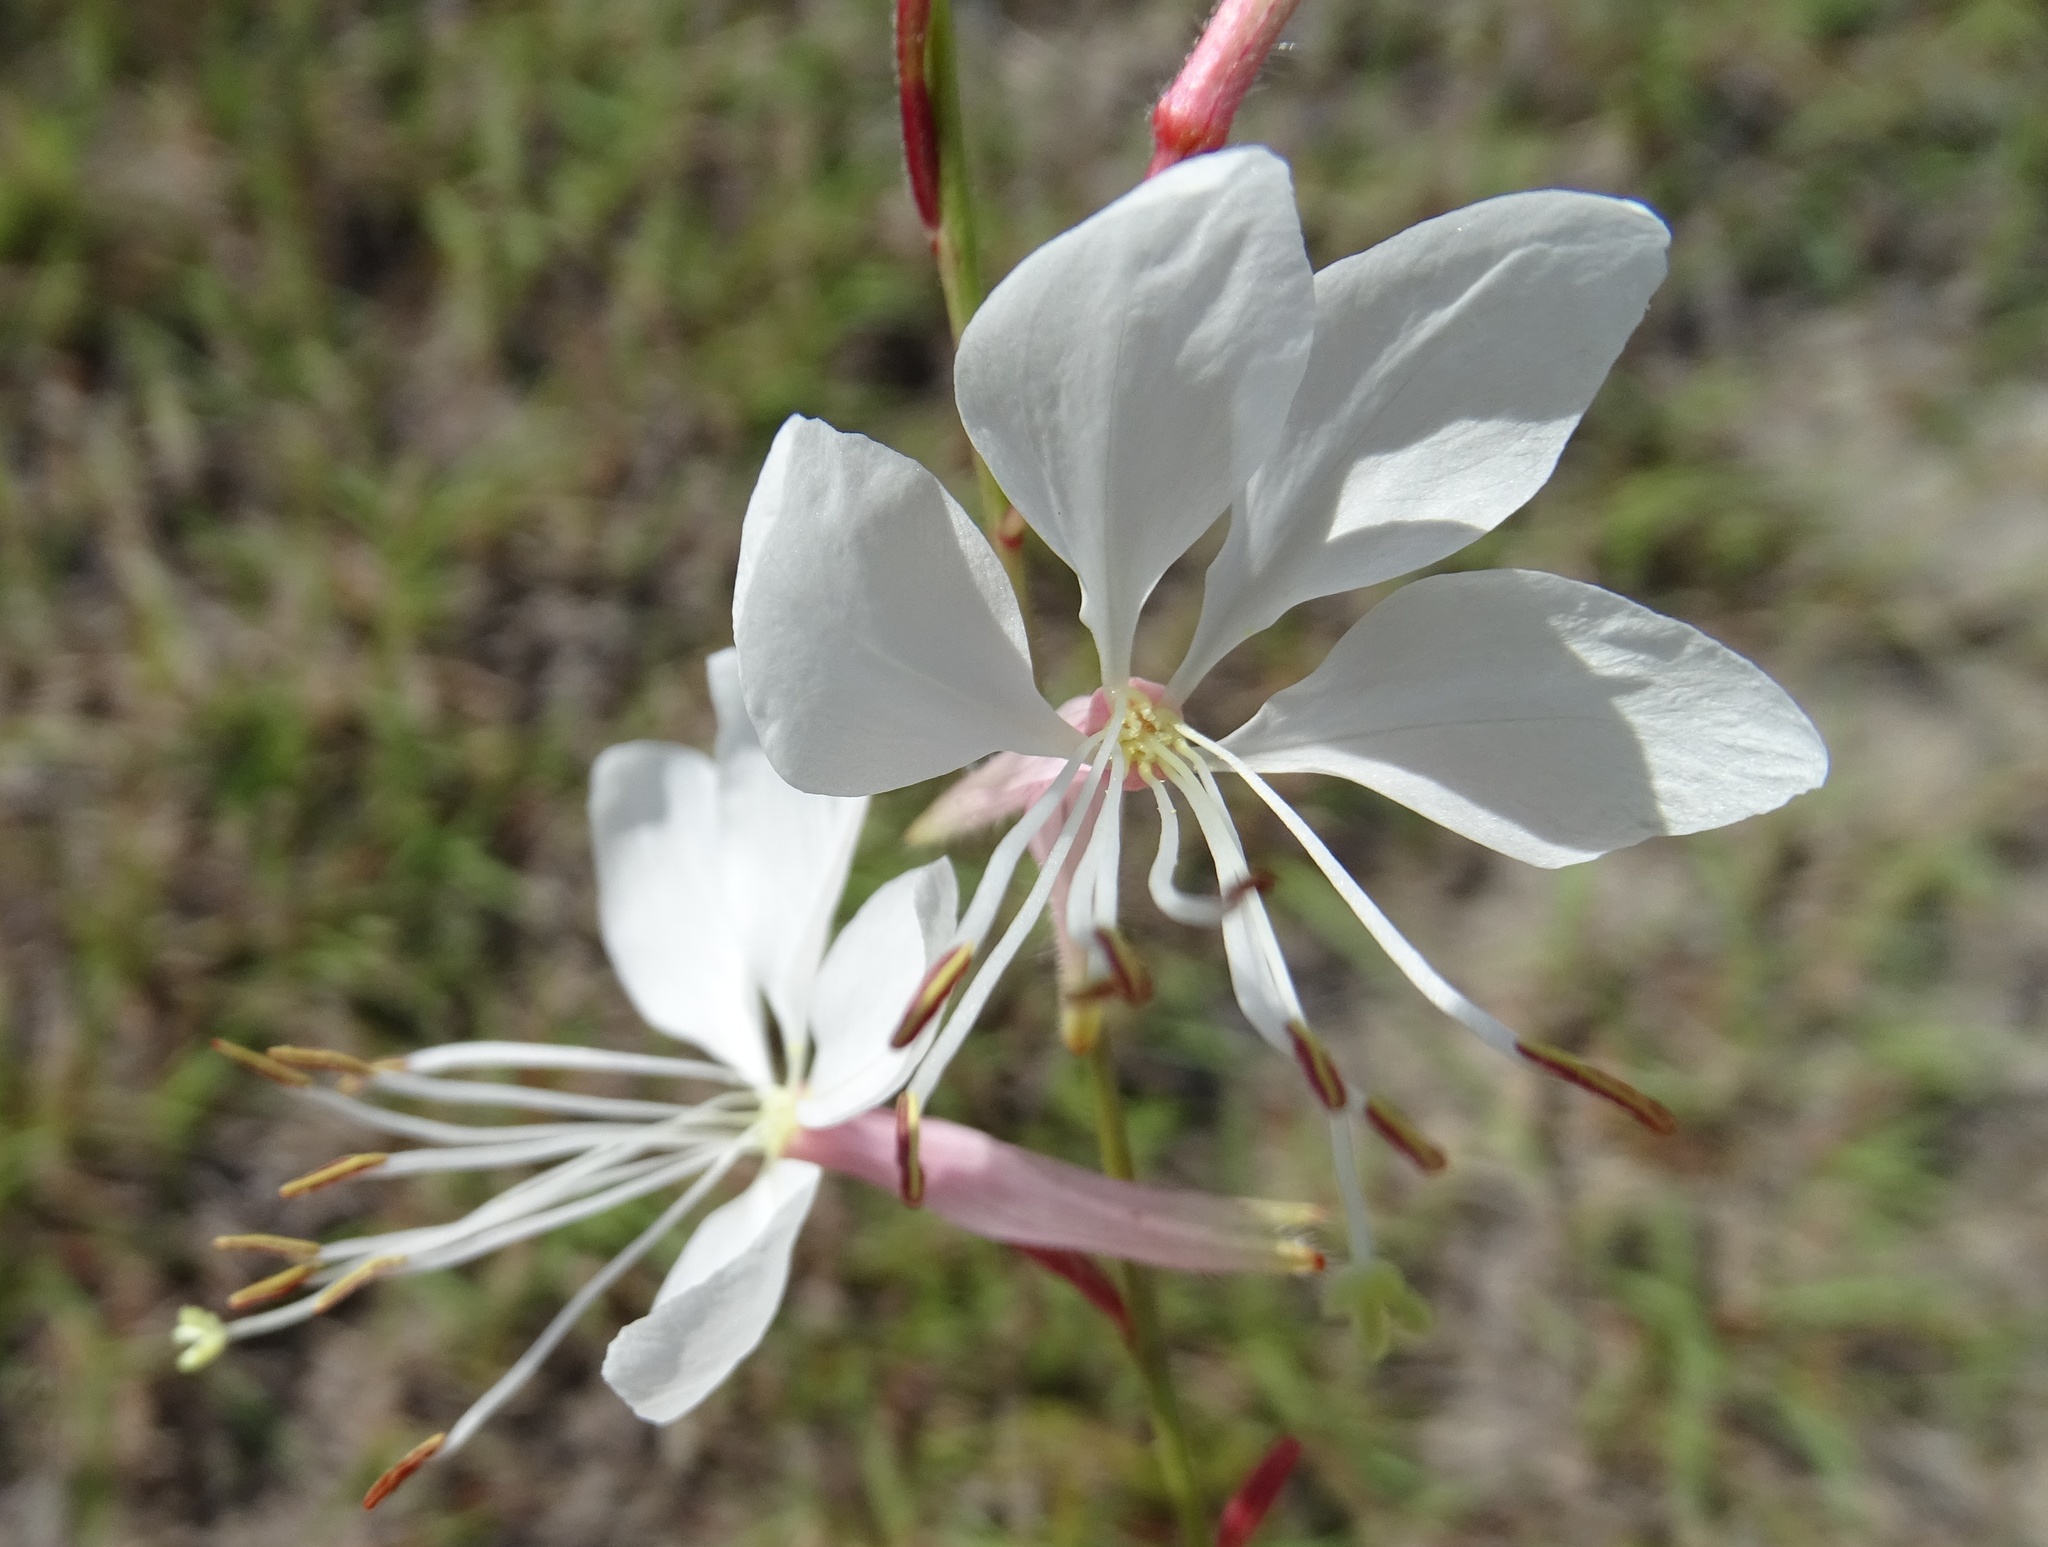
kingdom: Plantae
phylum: Tracheophyta
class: Magnoliopsida
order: Myrtales
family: Onagraceae
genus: Oenothera
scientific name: Oenothera lindheimeri
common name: Lindheimer's beeblossom
